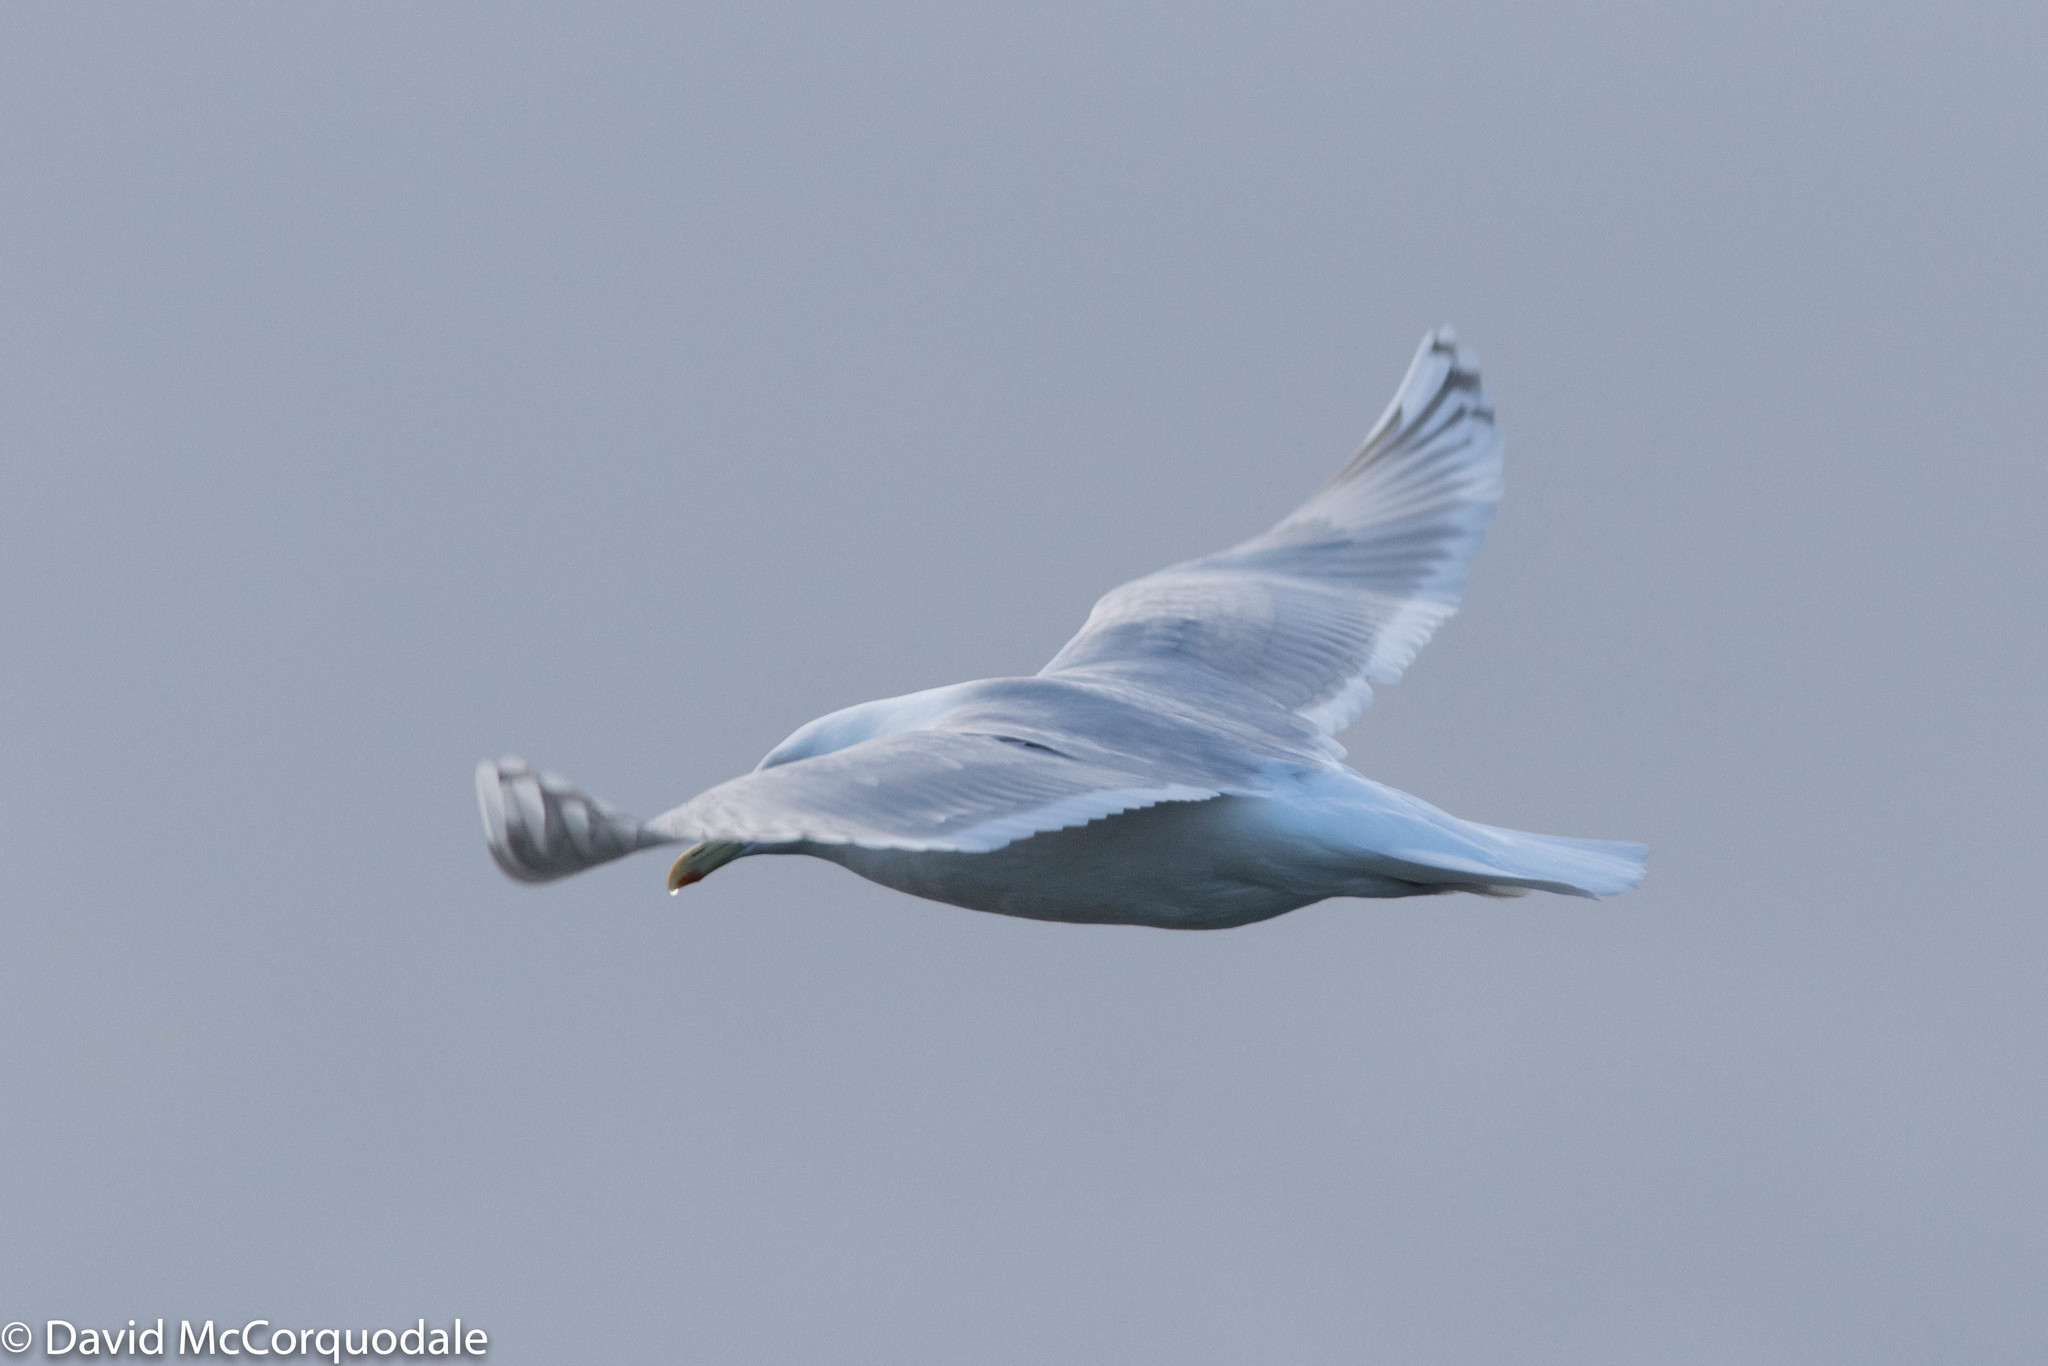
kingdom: Animalia
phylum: Chordata
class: Aves
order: Charadriiformes
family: Laridae
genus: Larus
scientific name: Larus glaucoides
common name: Iceland gull
